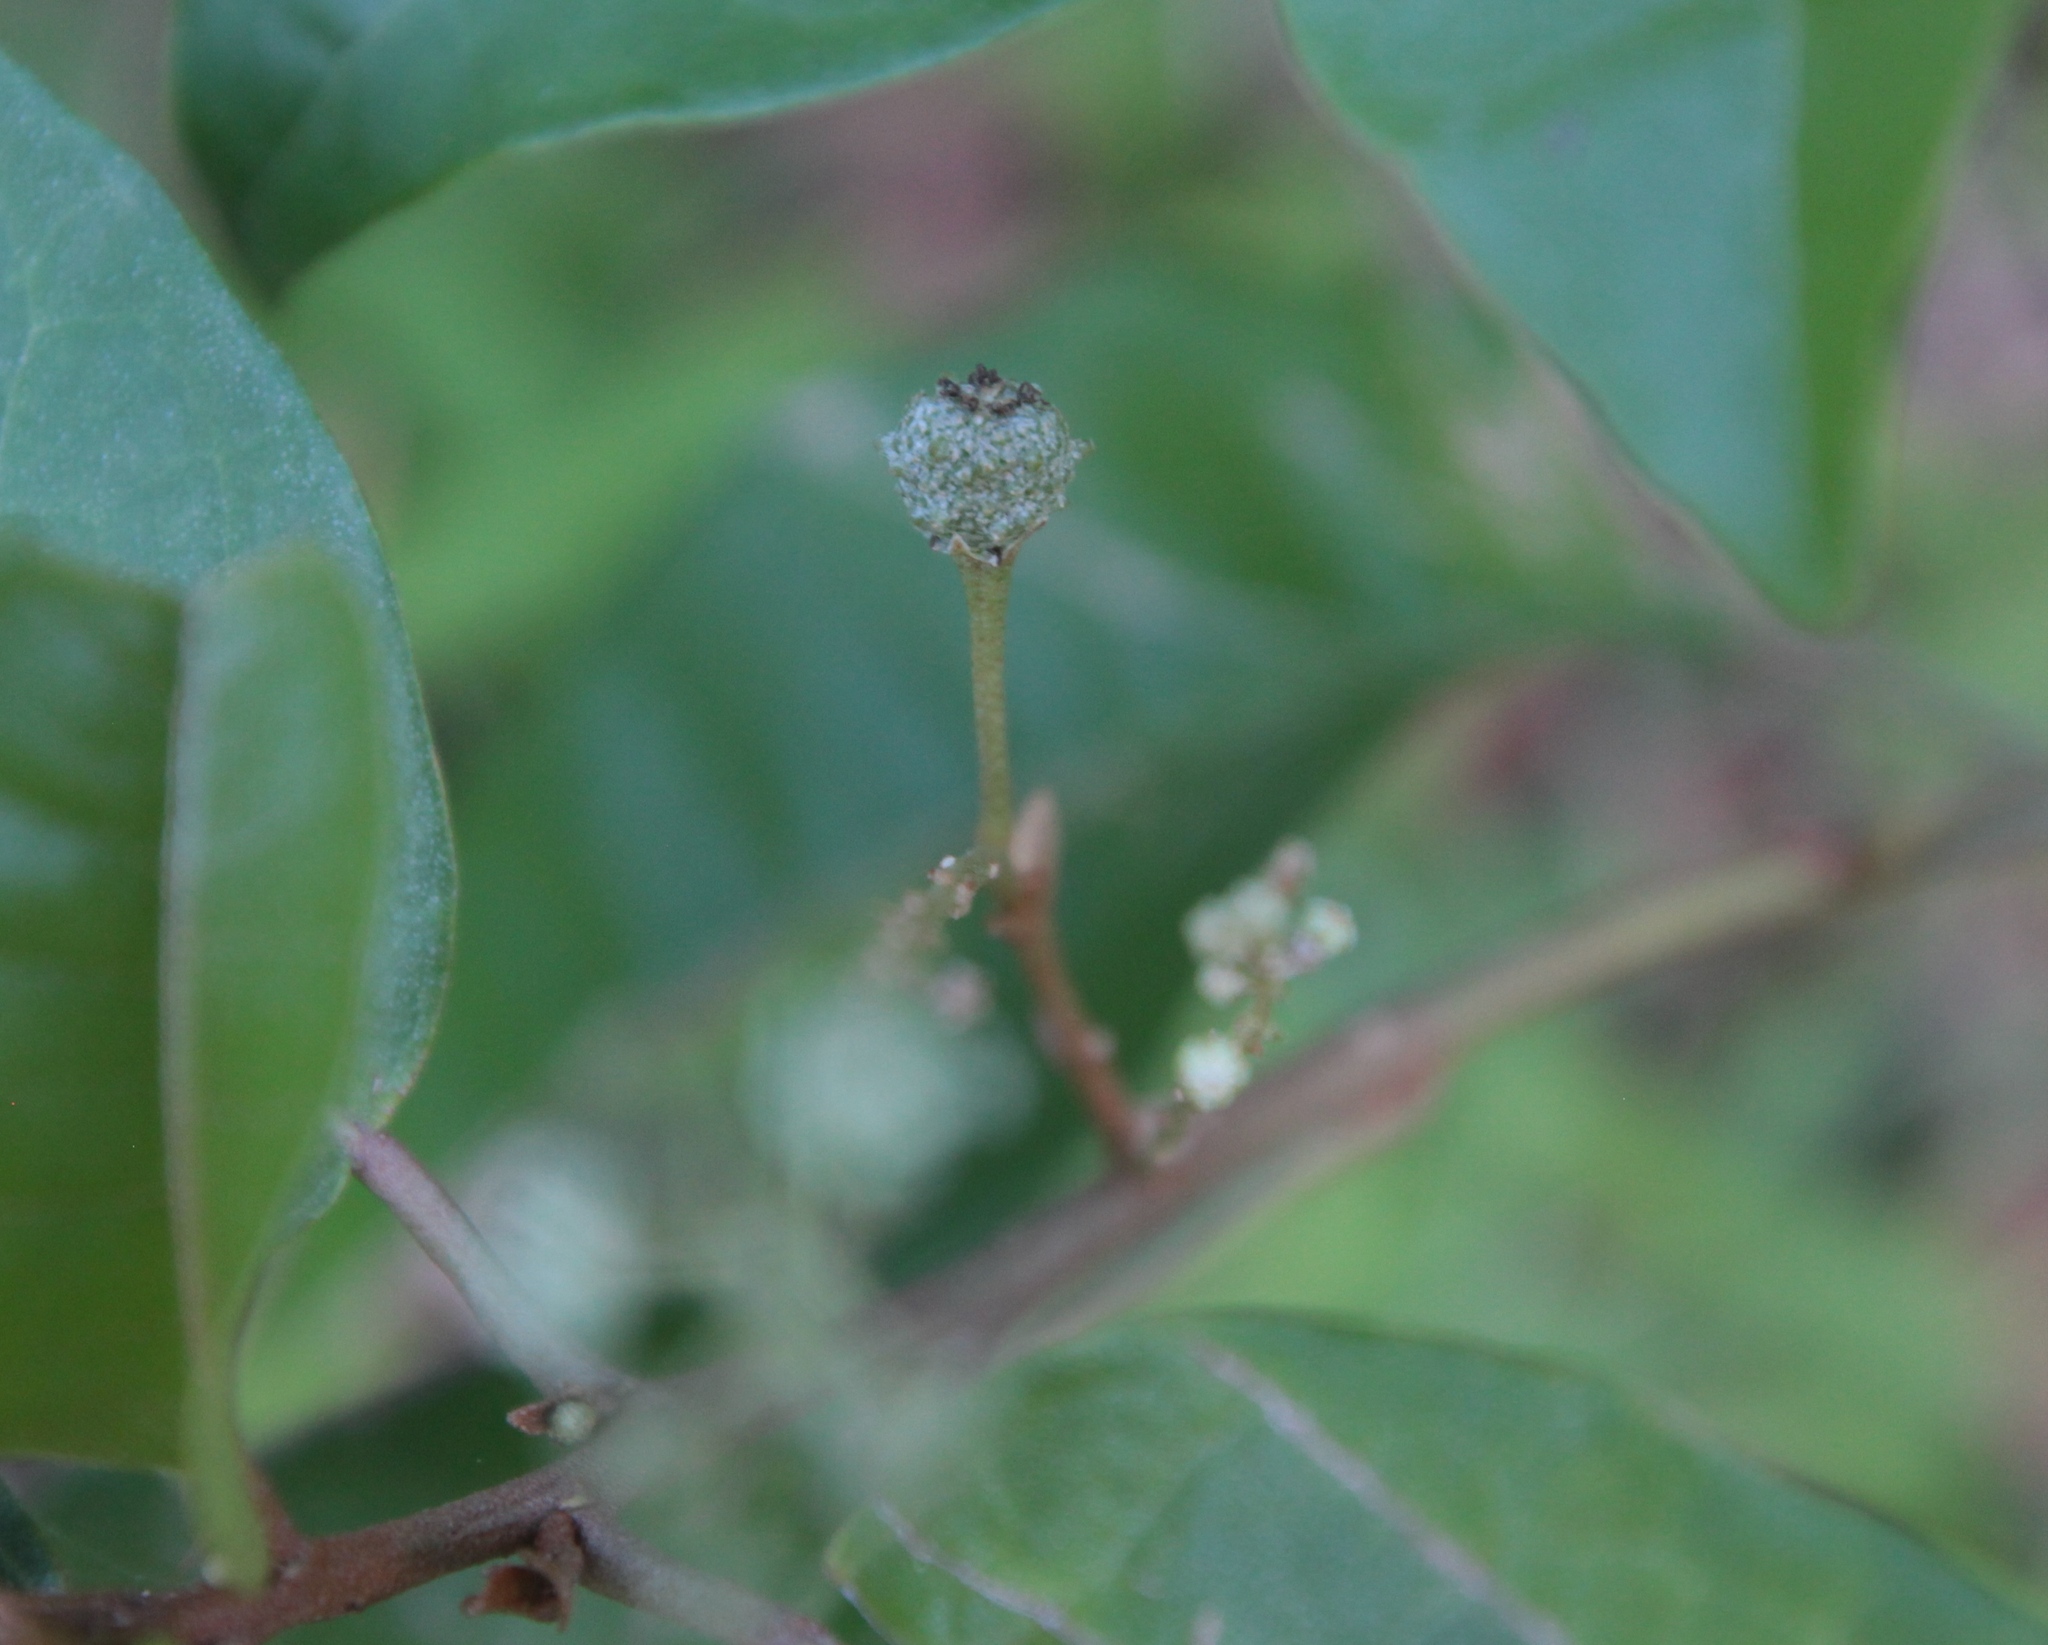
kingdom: Plantae
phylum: Tracheophyta
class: Magnoliopsida
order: Malpighiales
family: Euphorbiaceae
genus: Croton
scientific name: Croton nitens
